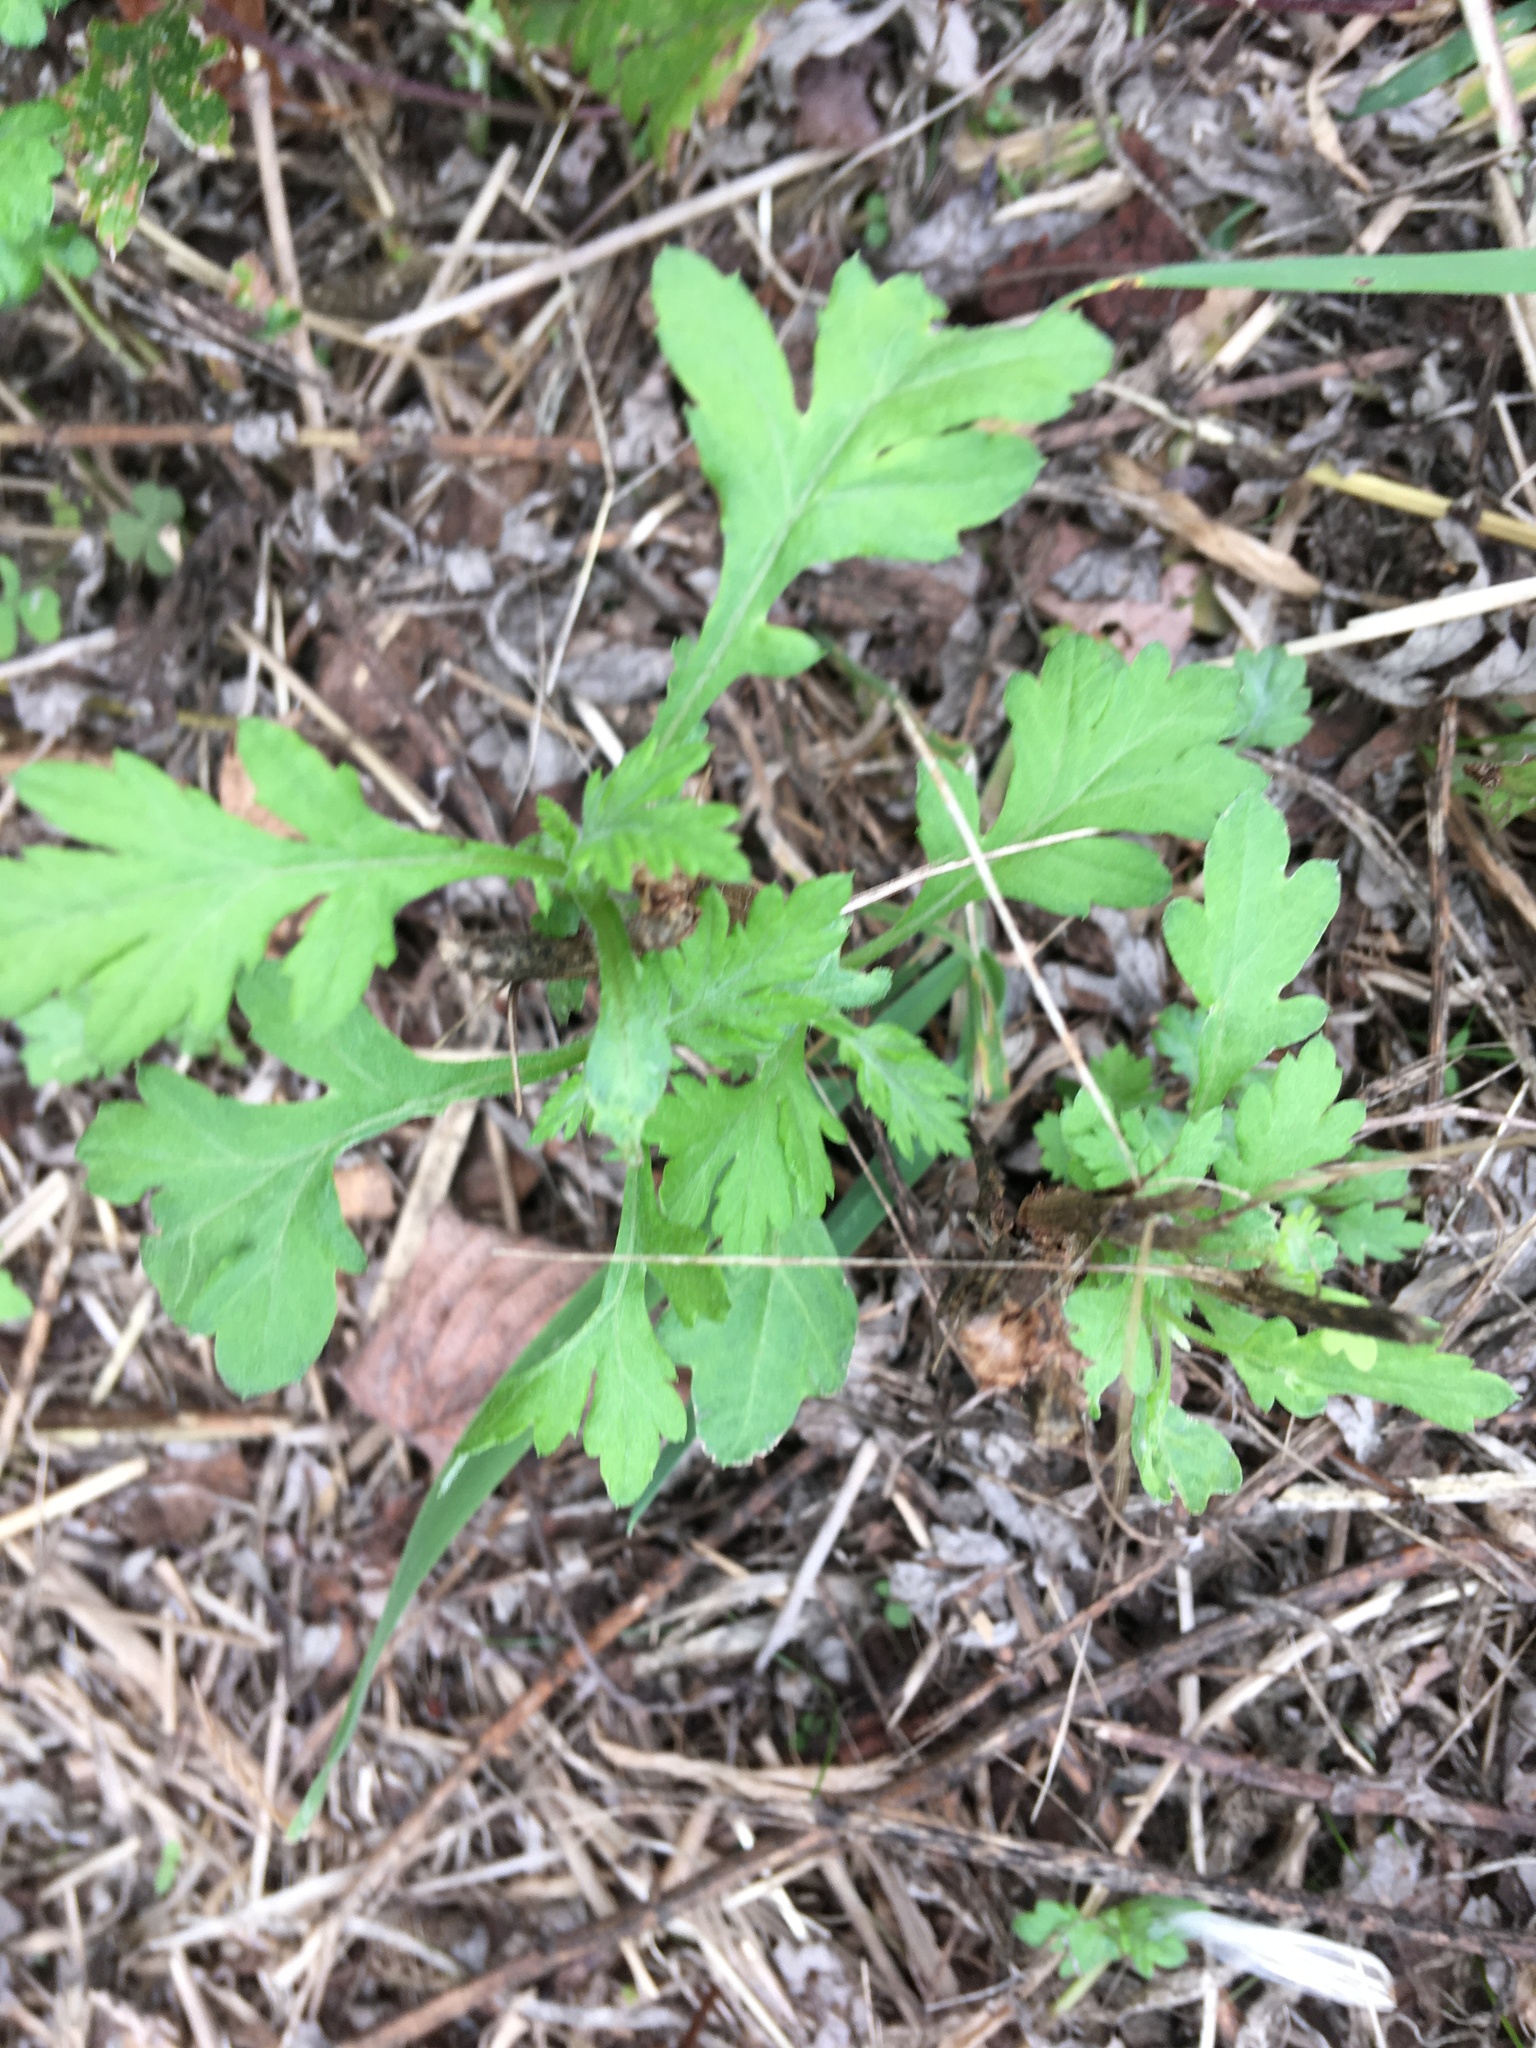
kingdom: Plantae
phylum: Tracheophyta
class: Magnoliopsida
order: Asterales
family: Asteraceae
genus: Artemisia
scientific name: Artemisia vulgaris
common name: Mugwort
